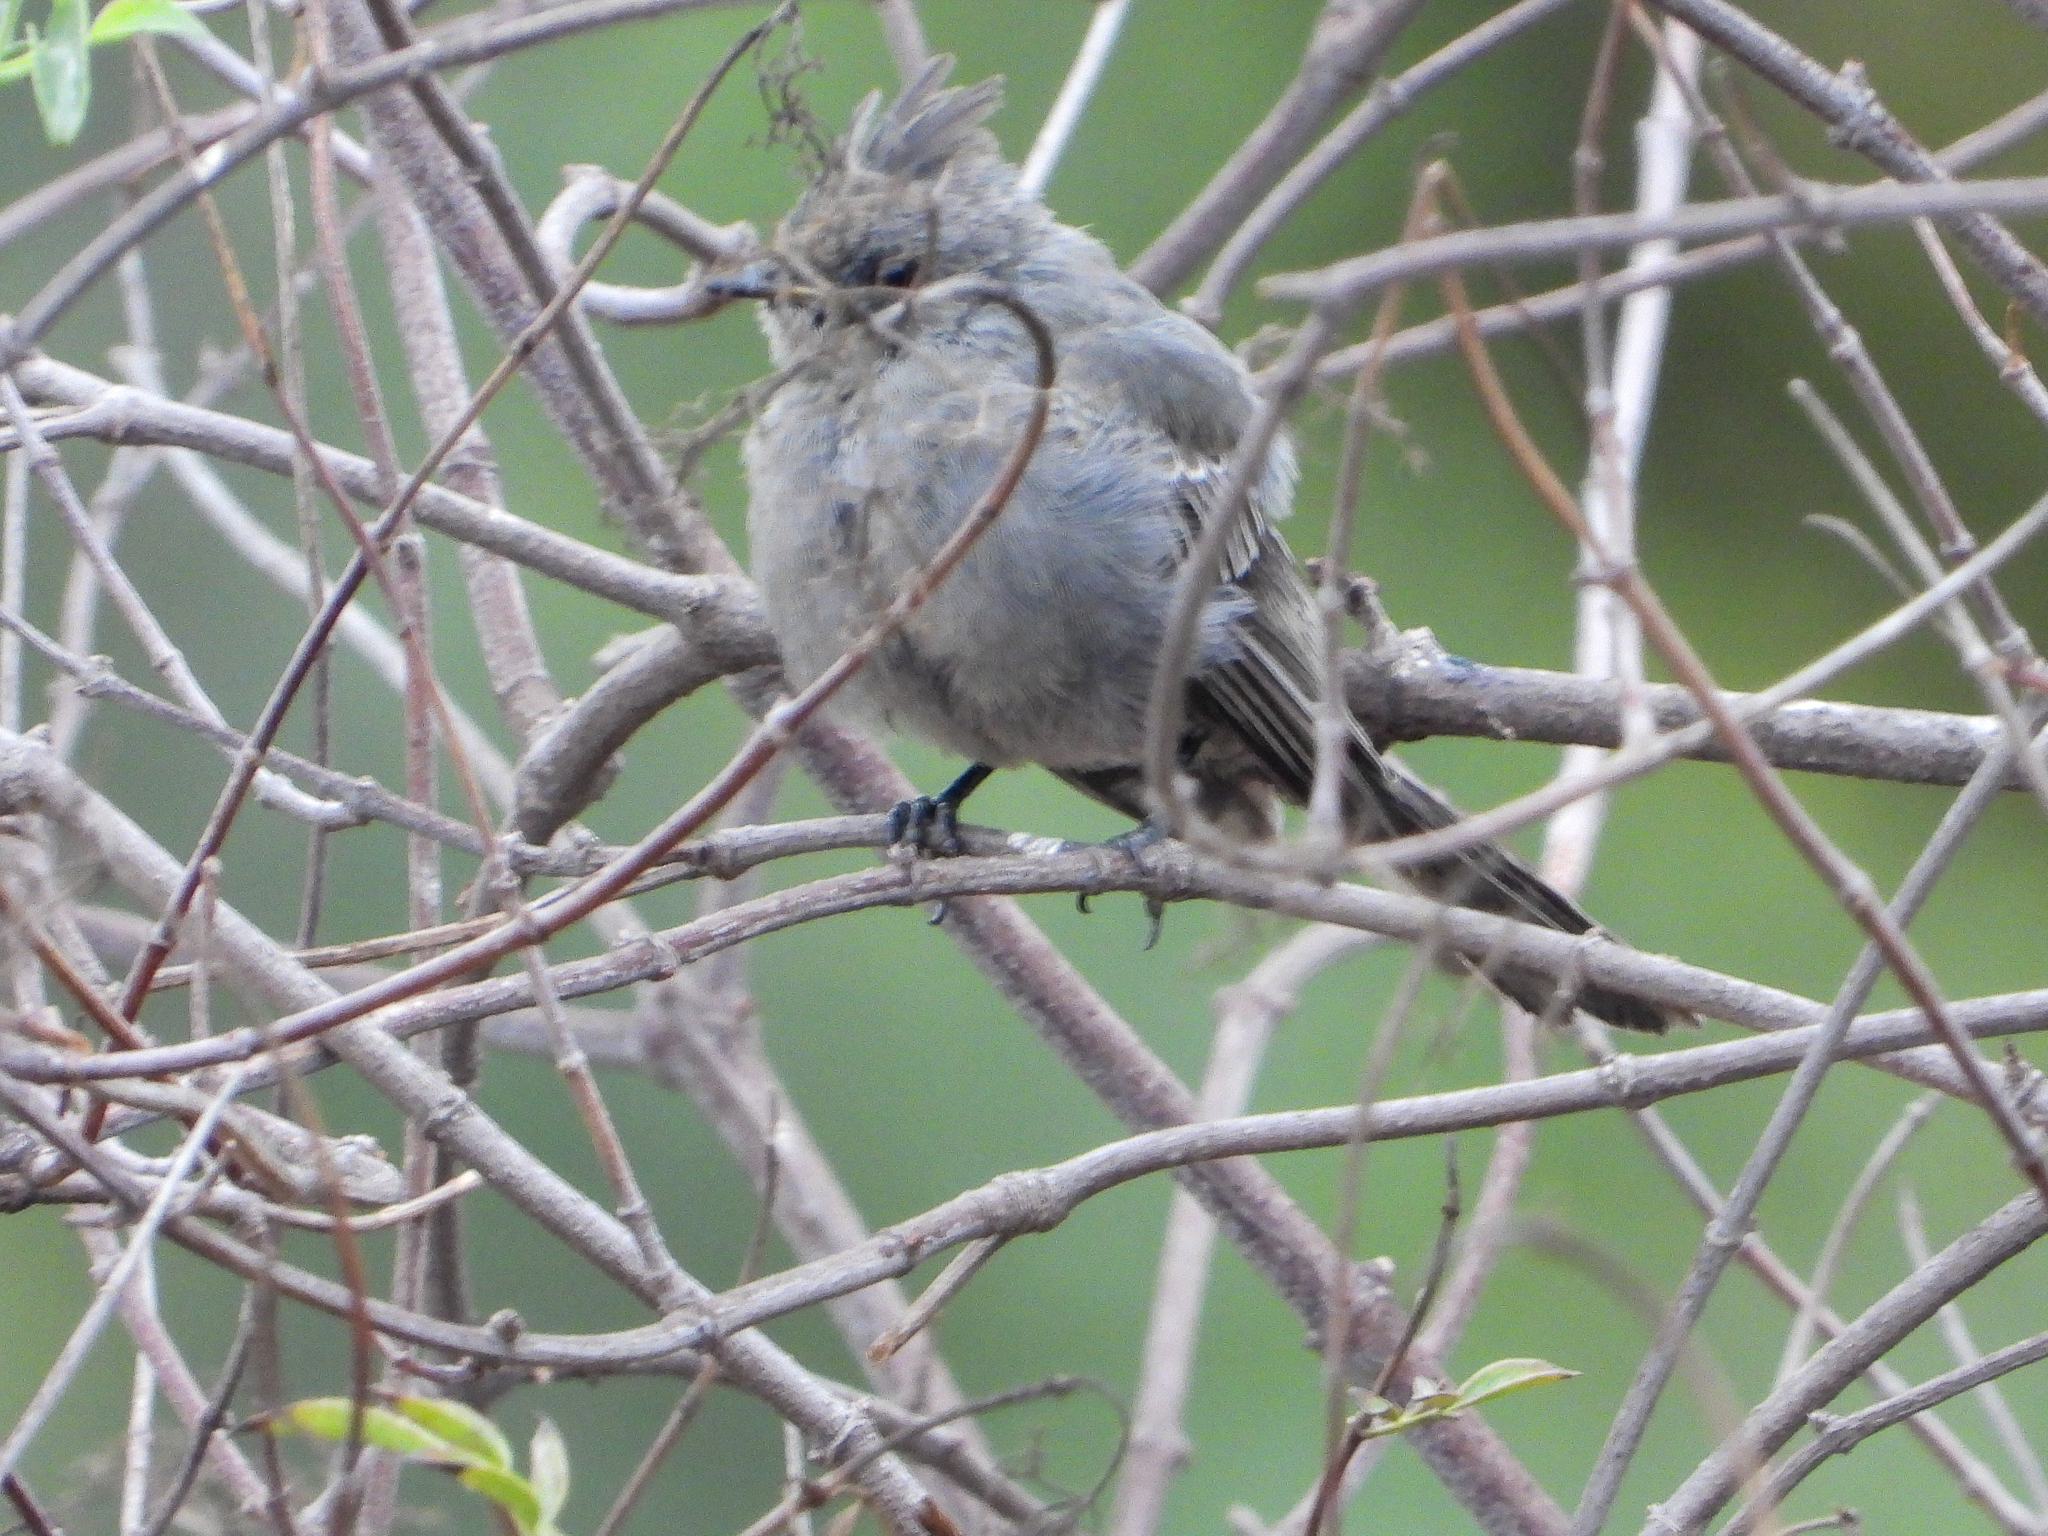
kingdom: Animalia
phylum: Chordata
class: Aves
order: Passeriformes
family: Ptilogonatidae
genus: Phainopepla
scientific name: Phainopepla nitens
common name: Phainopepla
